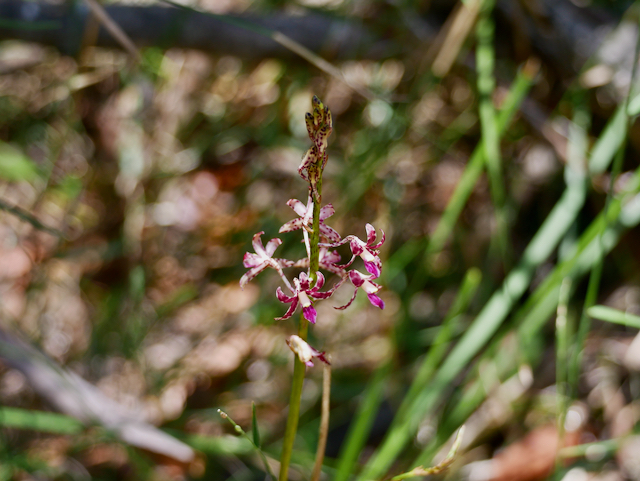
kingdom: Plantae
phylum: Tracheophyta
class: Liliopsida
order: Asparagales
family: Orchidaceae
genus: Dipodium
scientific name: Dipodium variegatum
